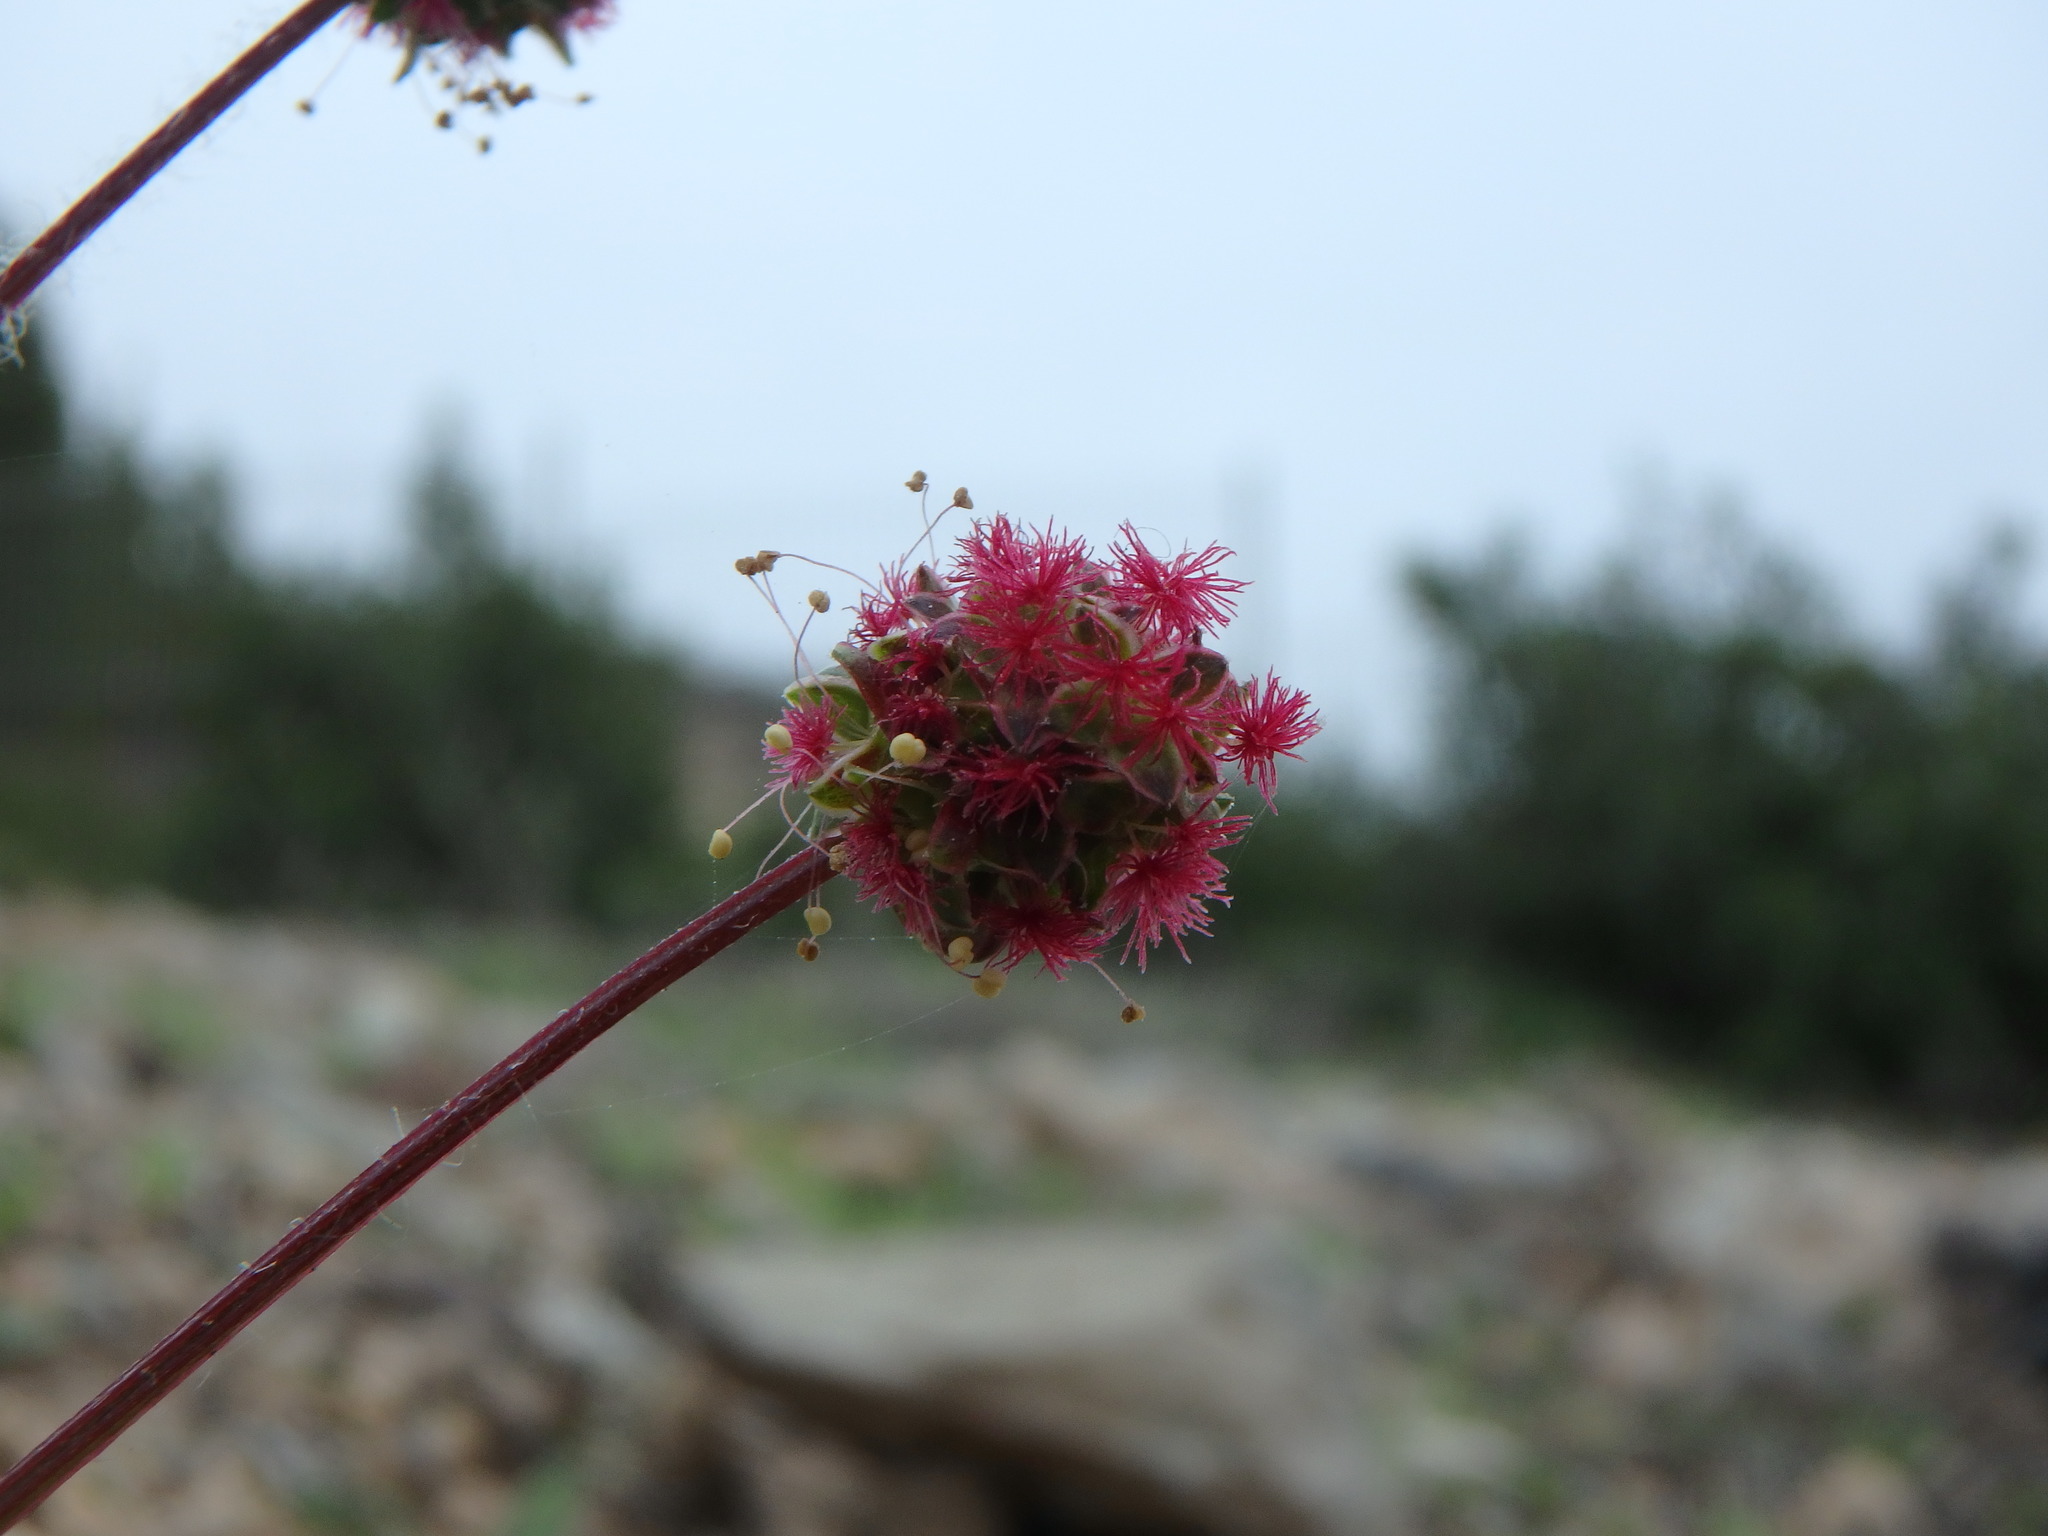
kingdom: Plantae
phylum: Tracheophyta
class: Magnoliopsida
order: Rosales
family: Rosaceae
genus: Poterium
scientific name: Poterium megacarpon
